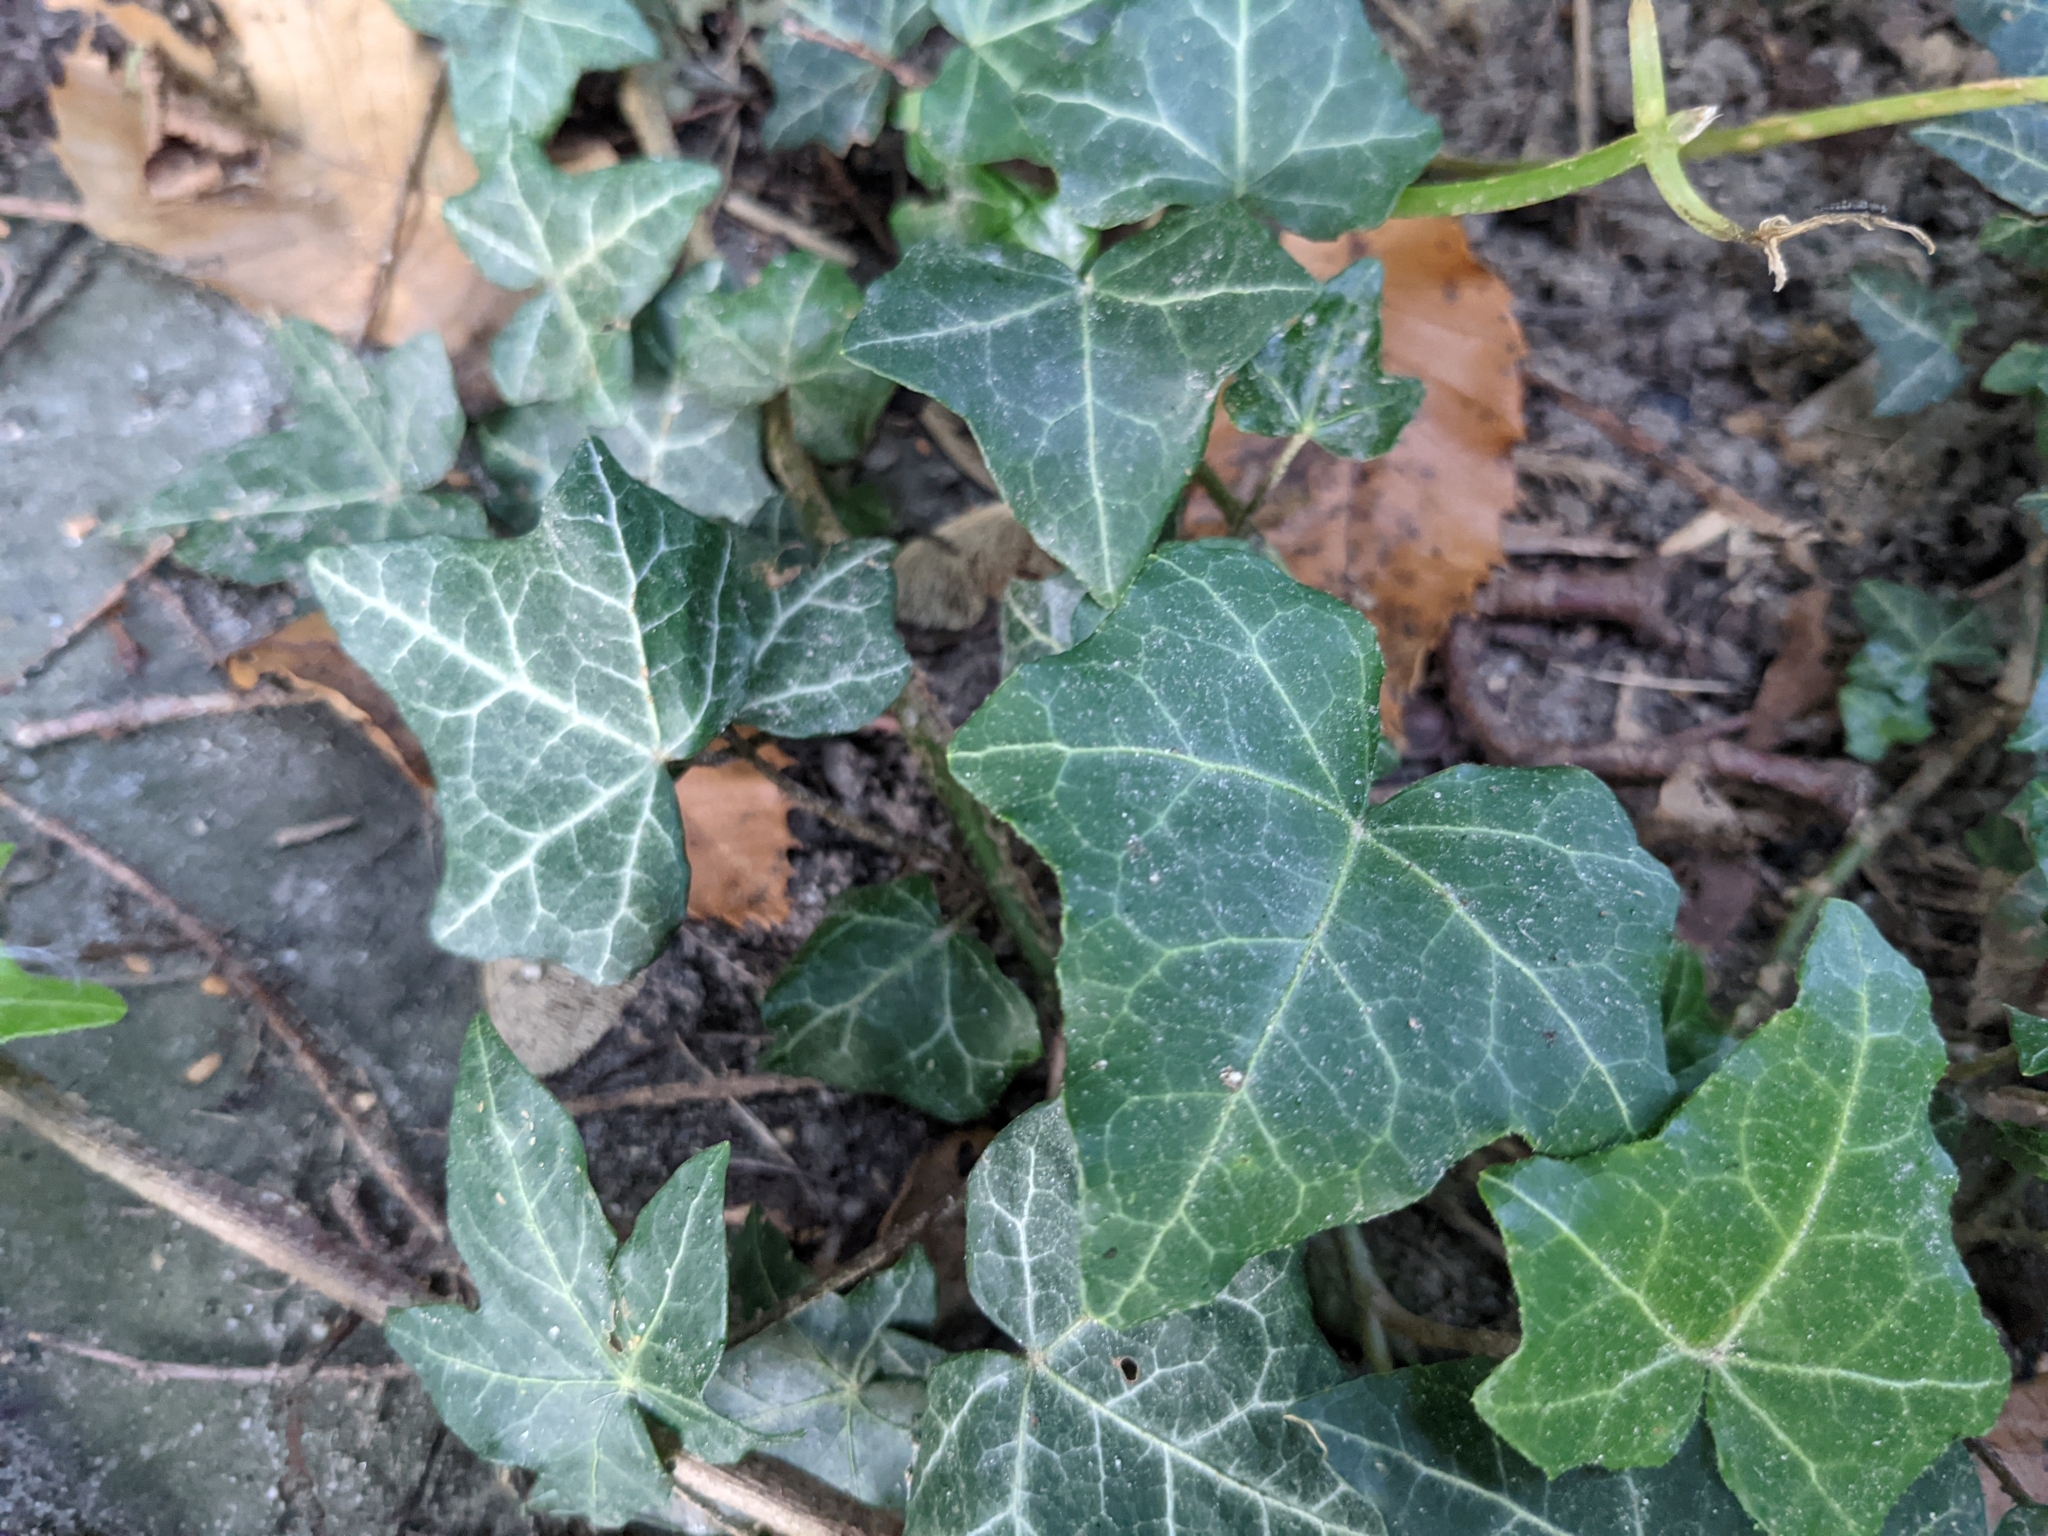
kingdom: Plantae
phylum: Tracheophyta
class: Magnoliopsida
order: Apiales
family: Araliaceae
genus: Hedera
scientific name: Hedera helix
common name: Ivy
